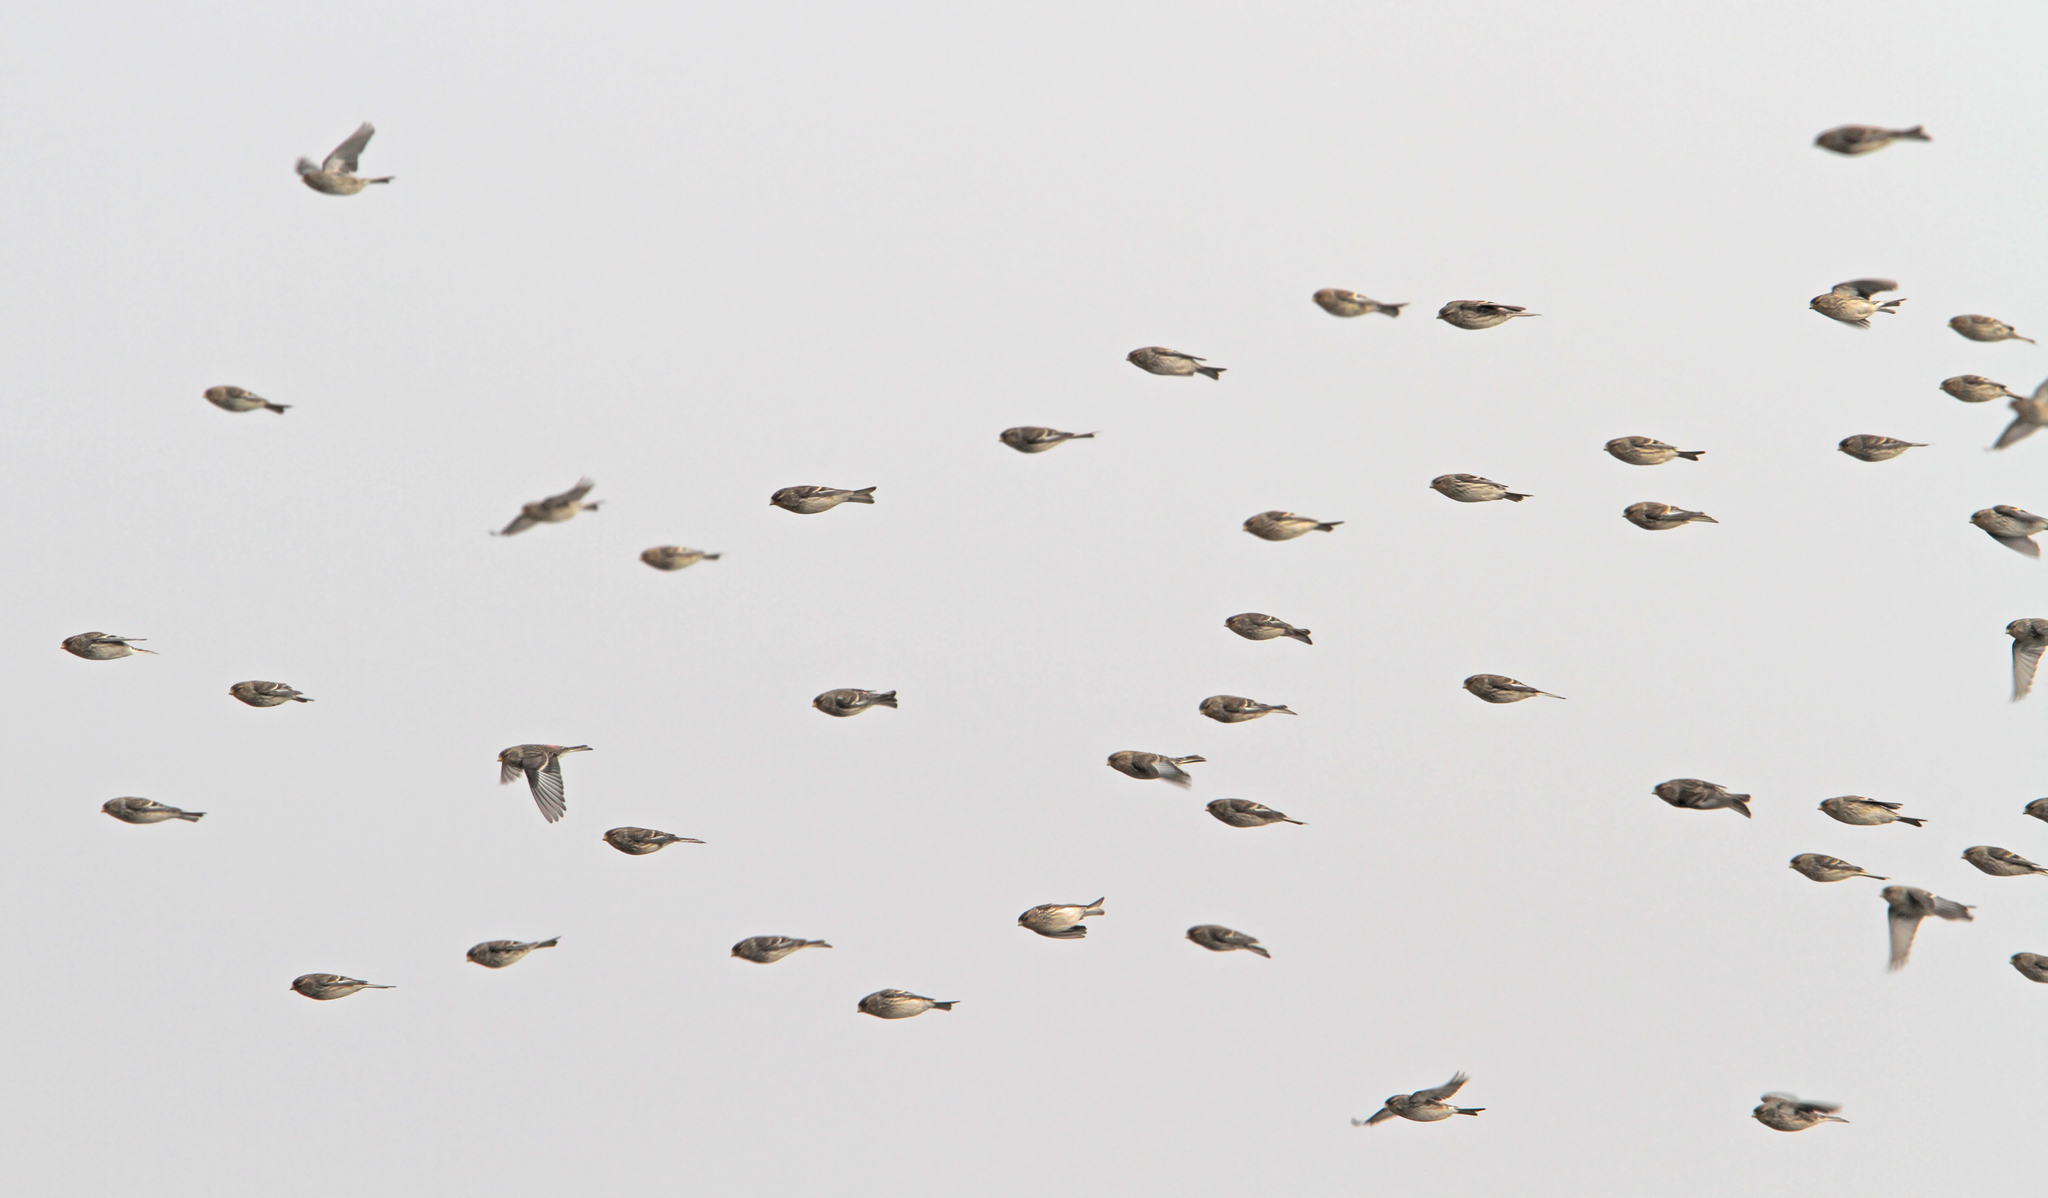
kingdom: Animalia
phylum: Chordata
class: Aves
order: Passeriformes
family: Fringillidae
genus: Linaria
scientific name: Linaria flavirostris
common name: Twite
